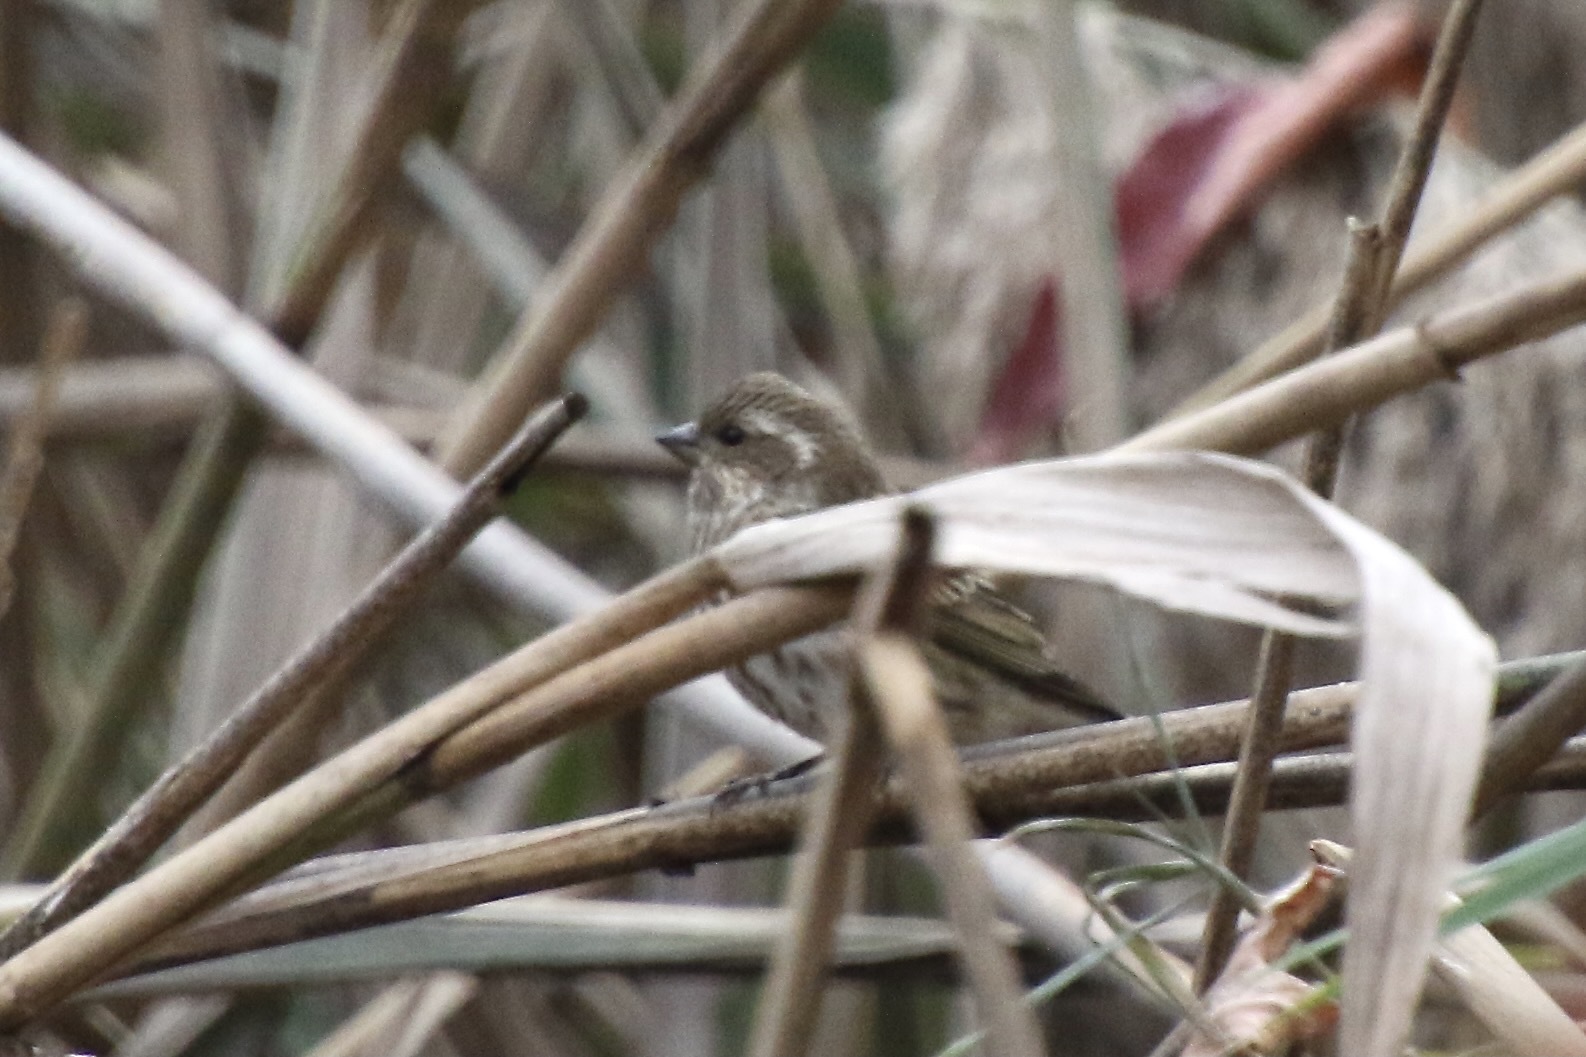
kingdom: Animalia
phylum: Chordata
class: Aves
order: Passeriformes
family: Fringillidae
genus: Haemorhous
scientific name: Haemorhous purpureus
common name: Purple finch
